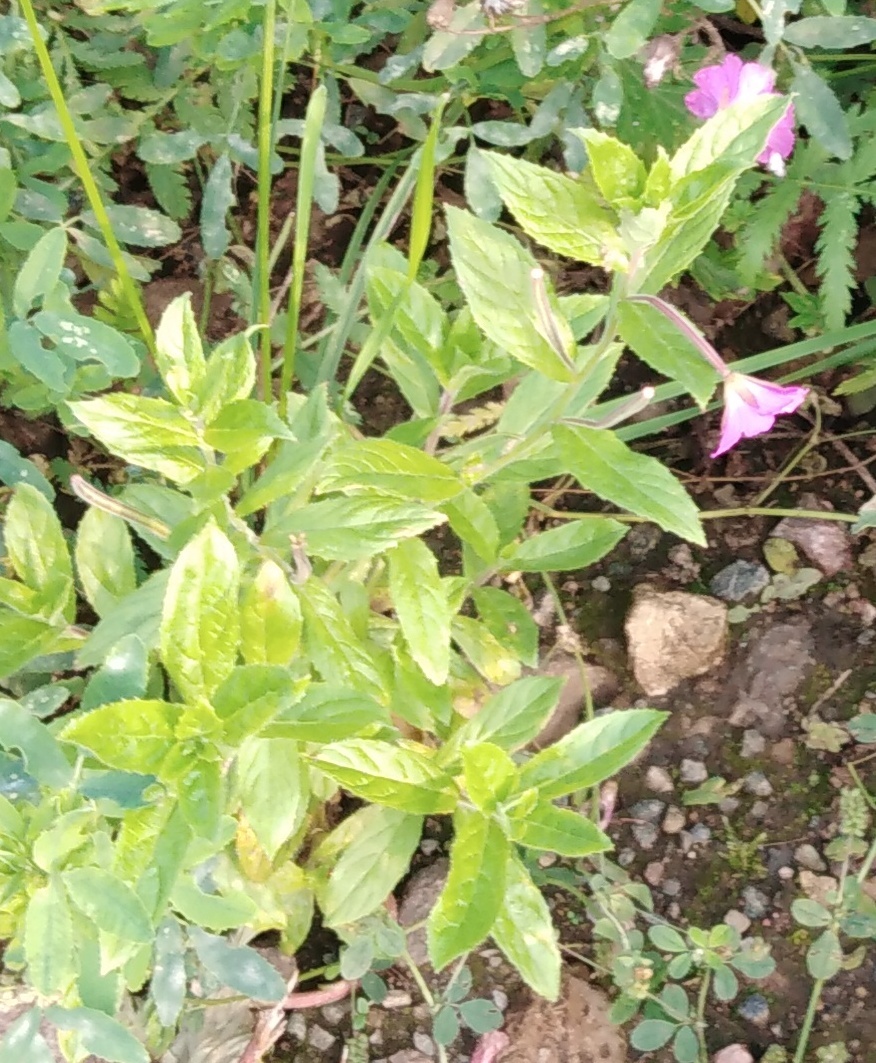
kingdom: Plantae
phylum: Tracheophyta
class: Magnoliopsida
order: Myrtales
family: Onagraceae
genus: Epilobium
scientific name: Epilobium hirsutum
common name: Great willowherb
